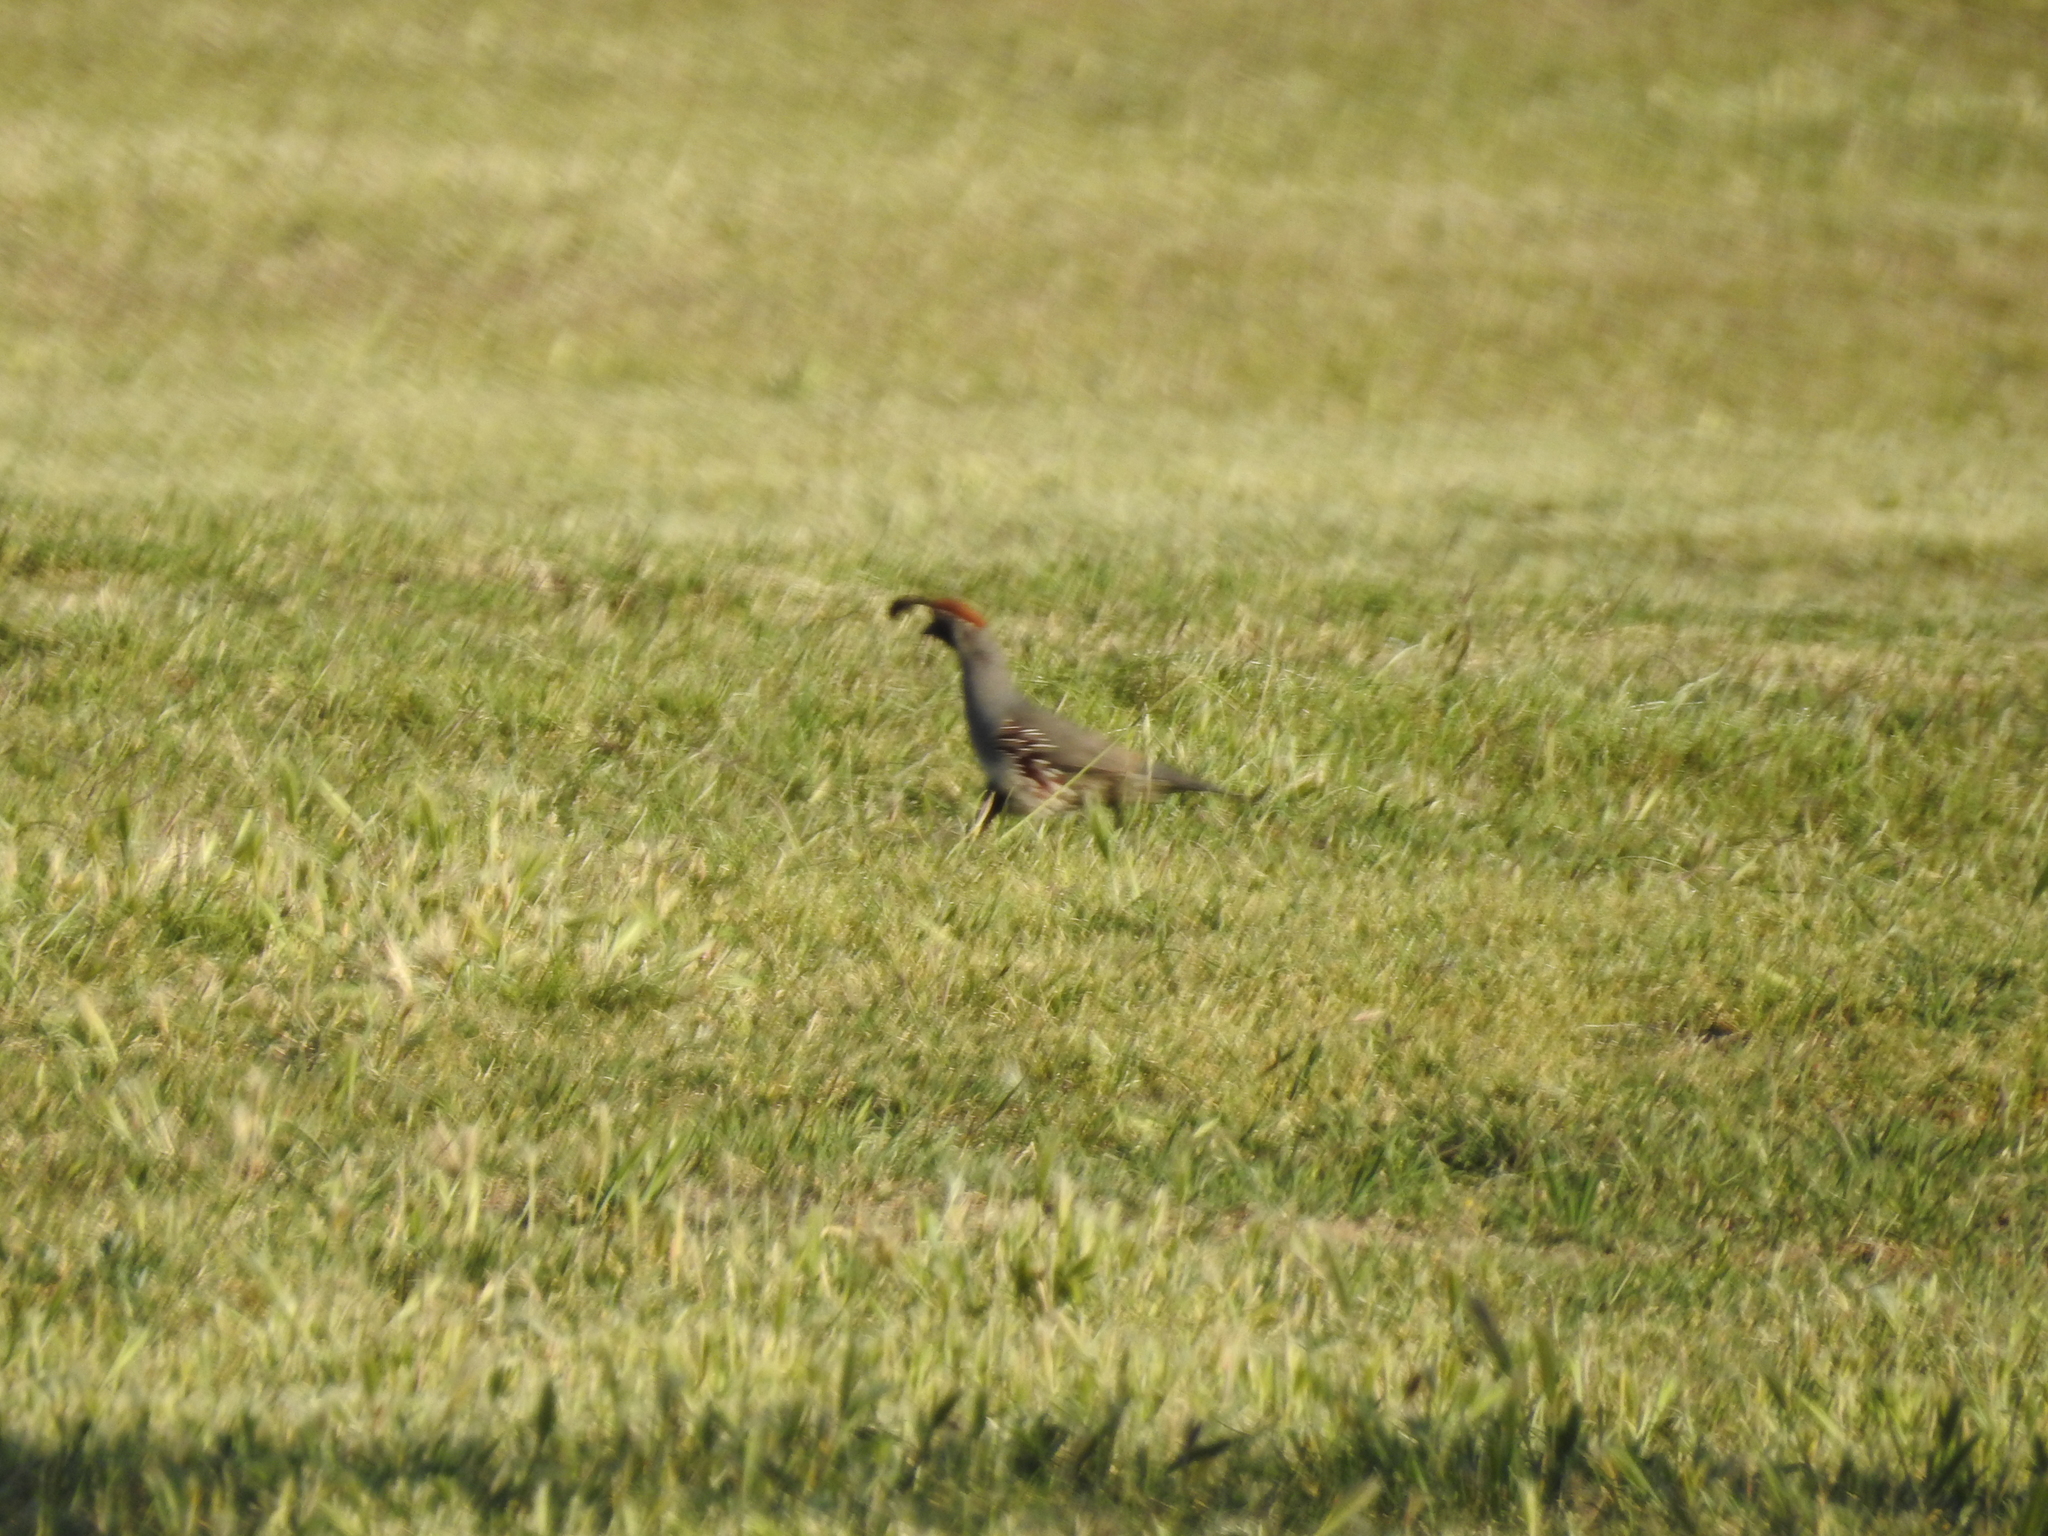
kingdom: Animalia
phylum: Chordata
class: Aves
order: Galliformes
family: Odontophoridae
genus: Callipepla
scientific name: Callipepla gambelii
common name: Gambel's quail
